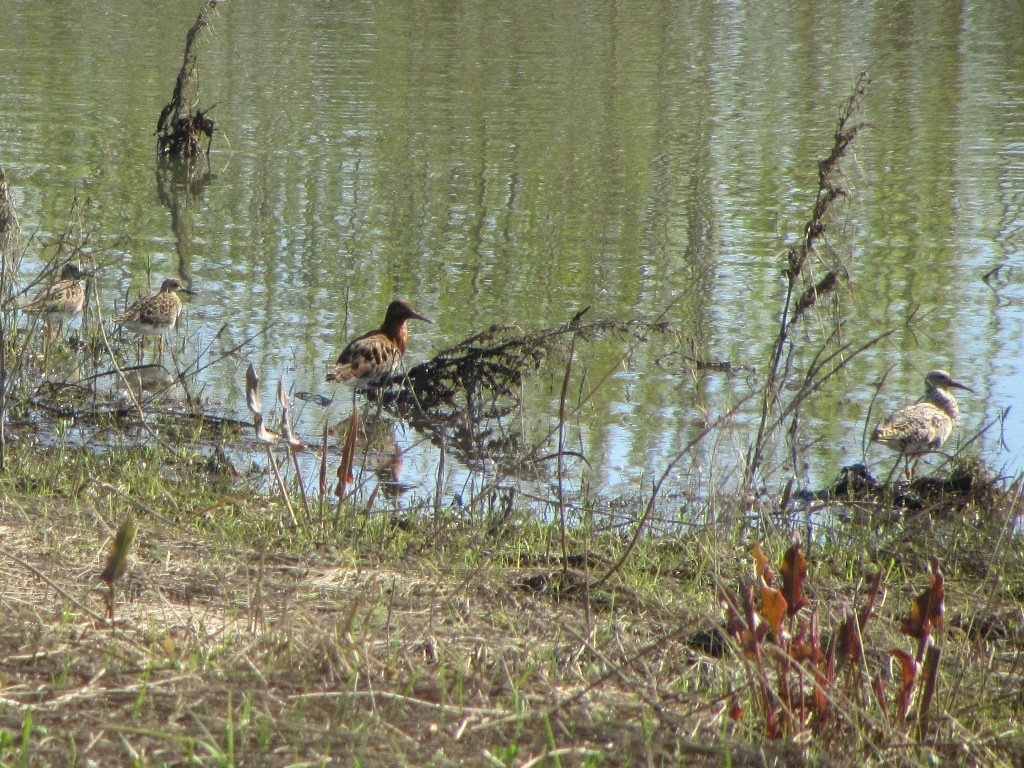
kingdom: Animalia
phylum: Chordata
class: Aves
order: Charadriiformes
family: Scolopacidae
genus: Calidris
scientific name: Calidris pugnax
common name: Ruff
